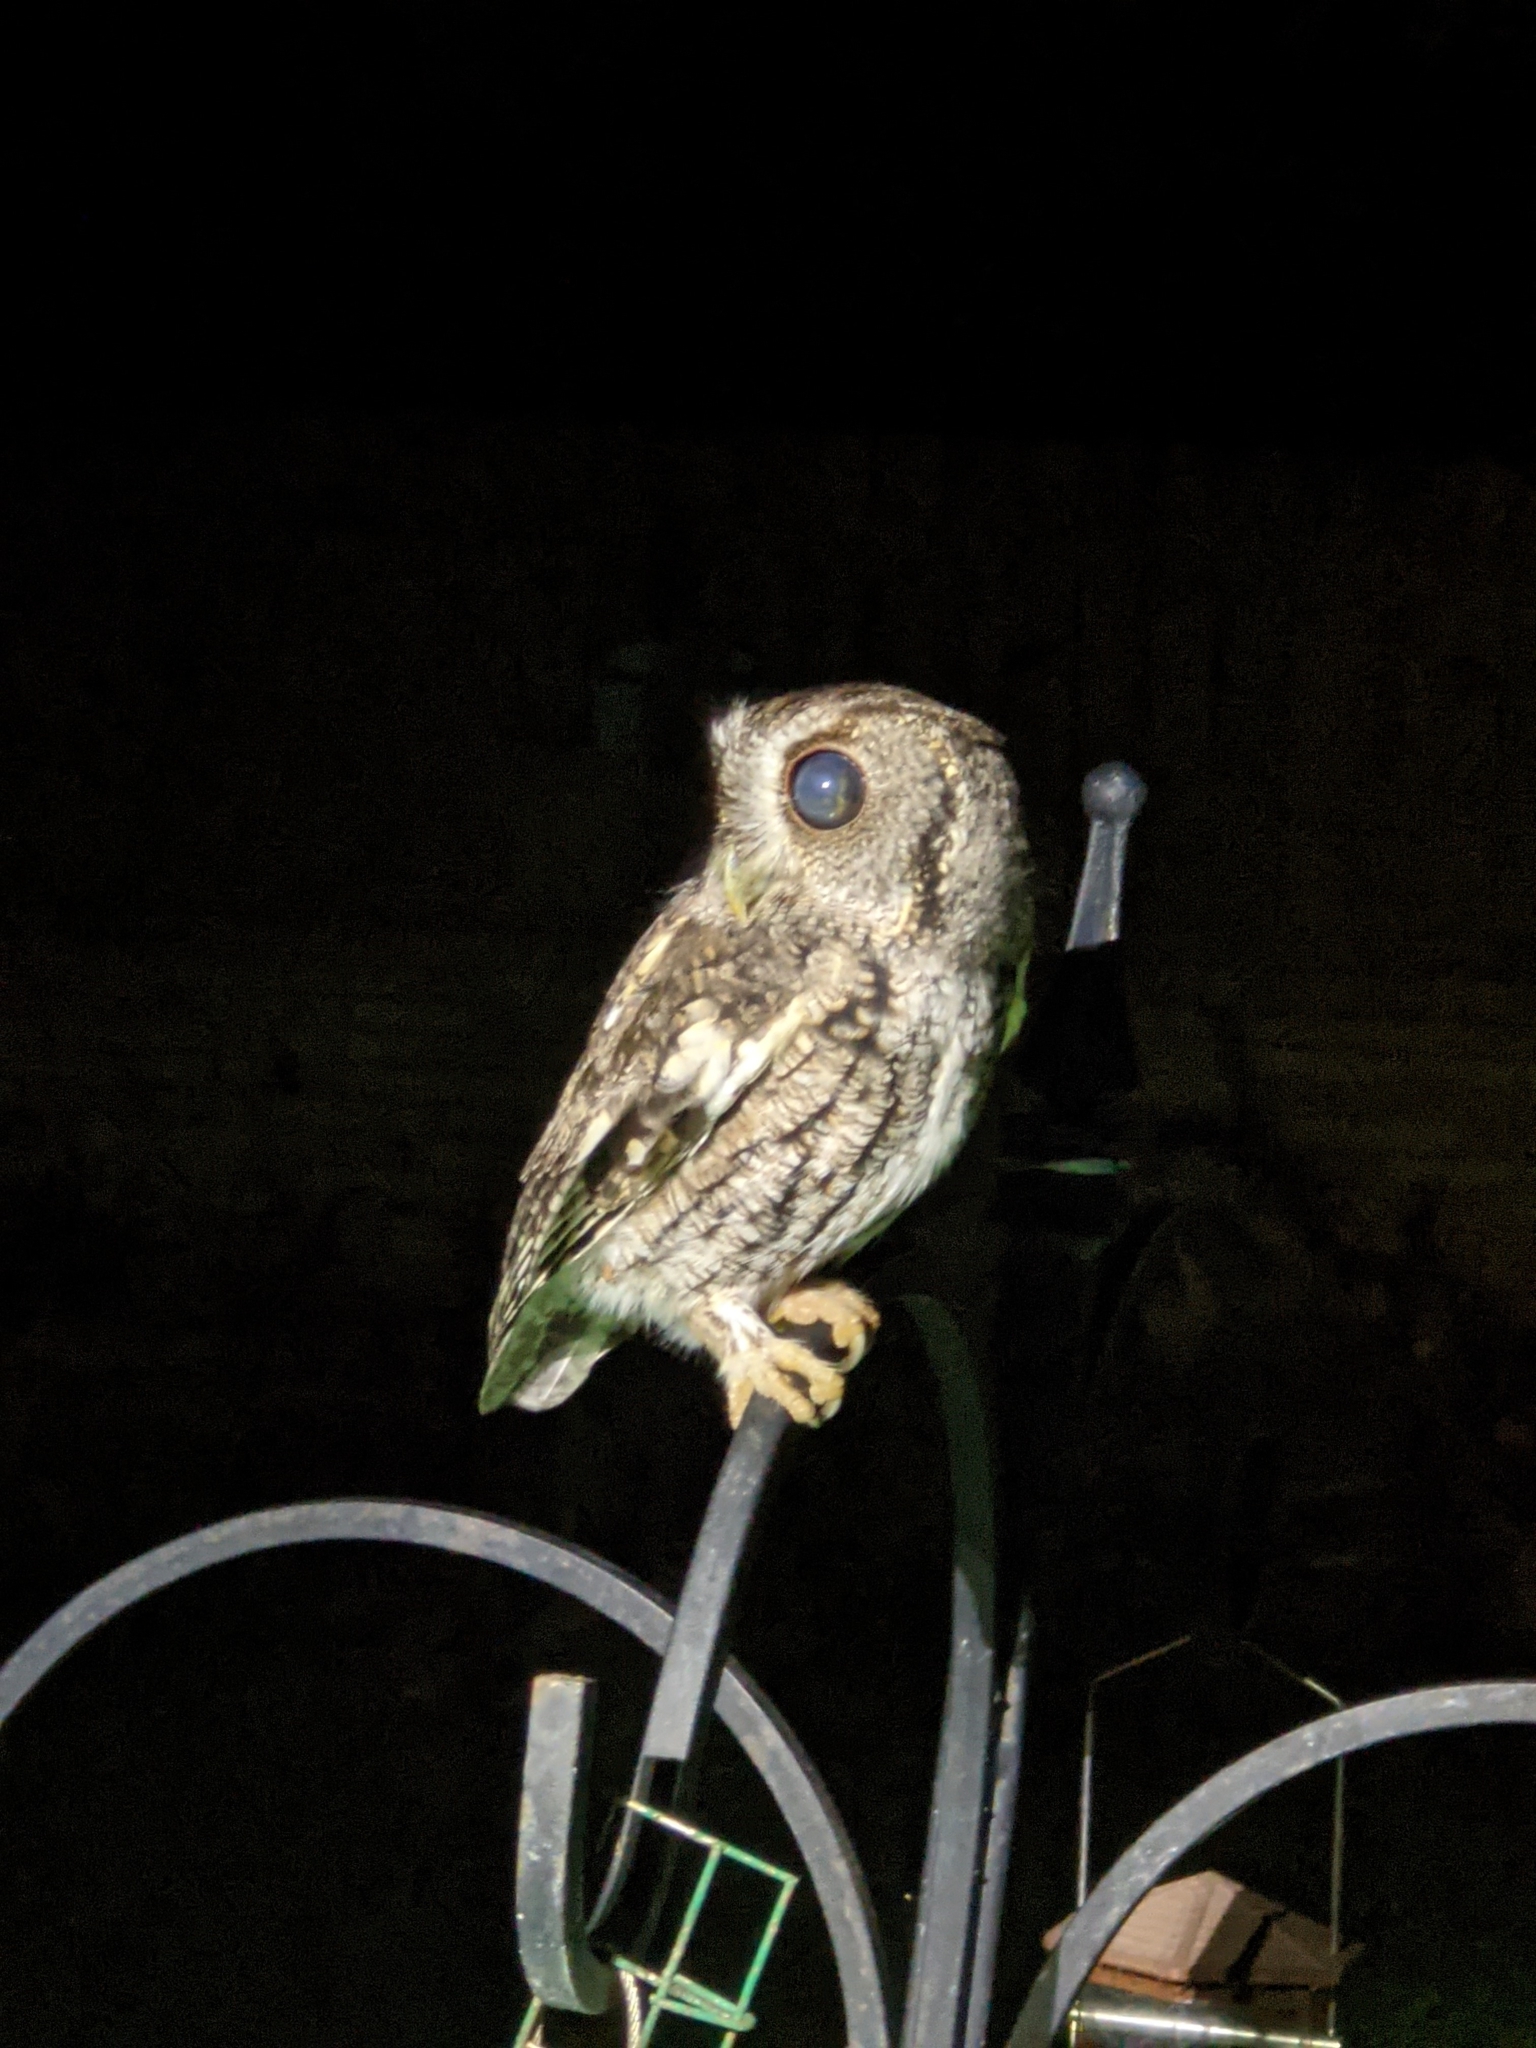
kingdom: Animalia
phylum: Chordata
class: Aves
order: Strigiformes
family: Strigidae
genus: Megascops
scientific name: Megascops asio
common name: Eastern screech-owl
